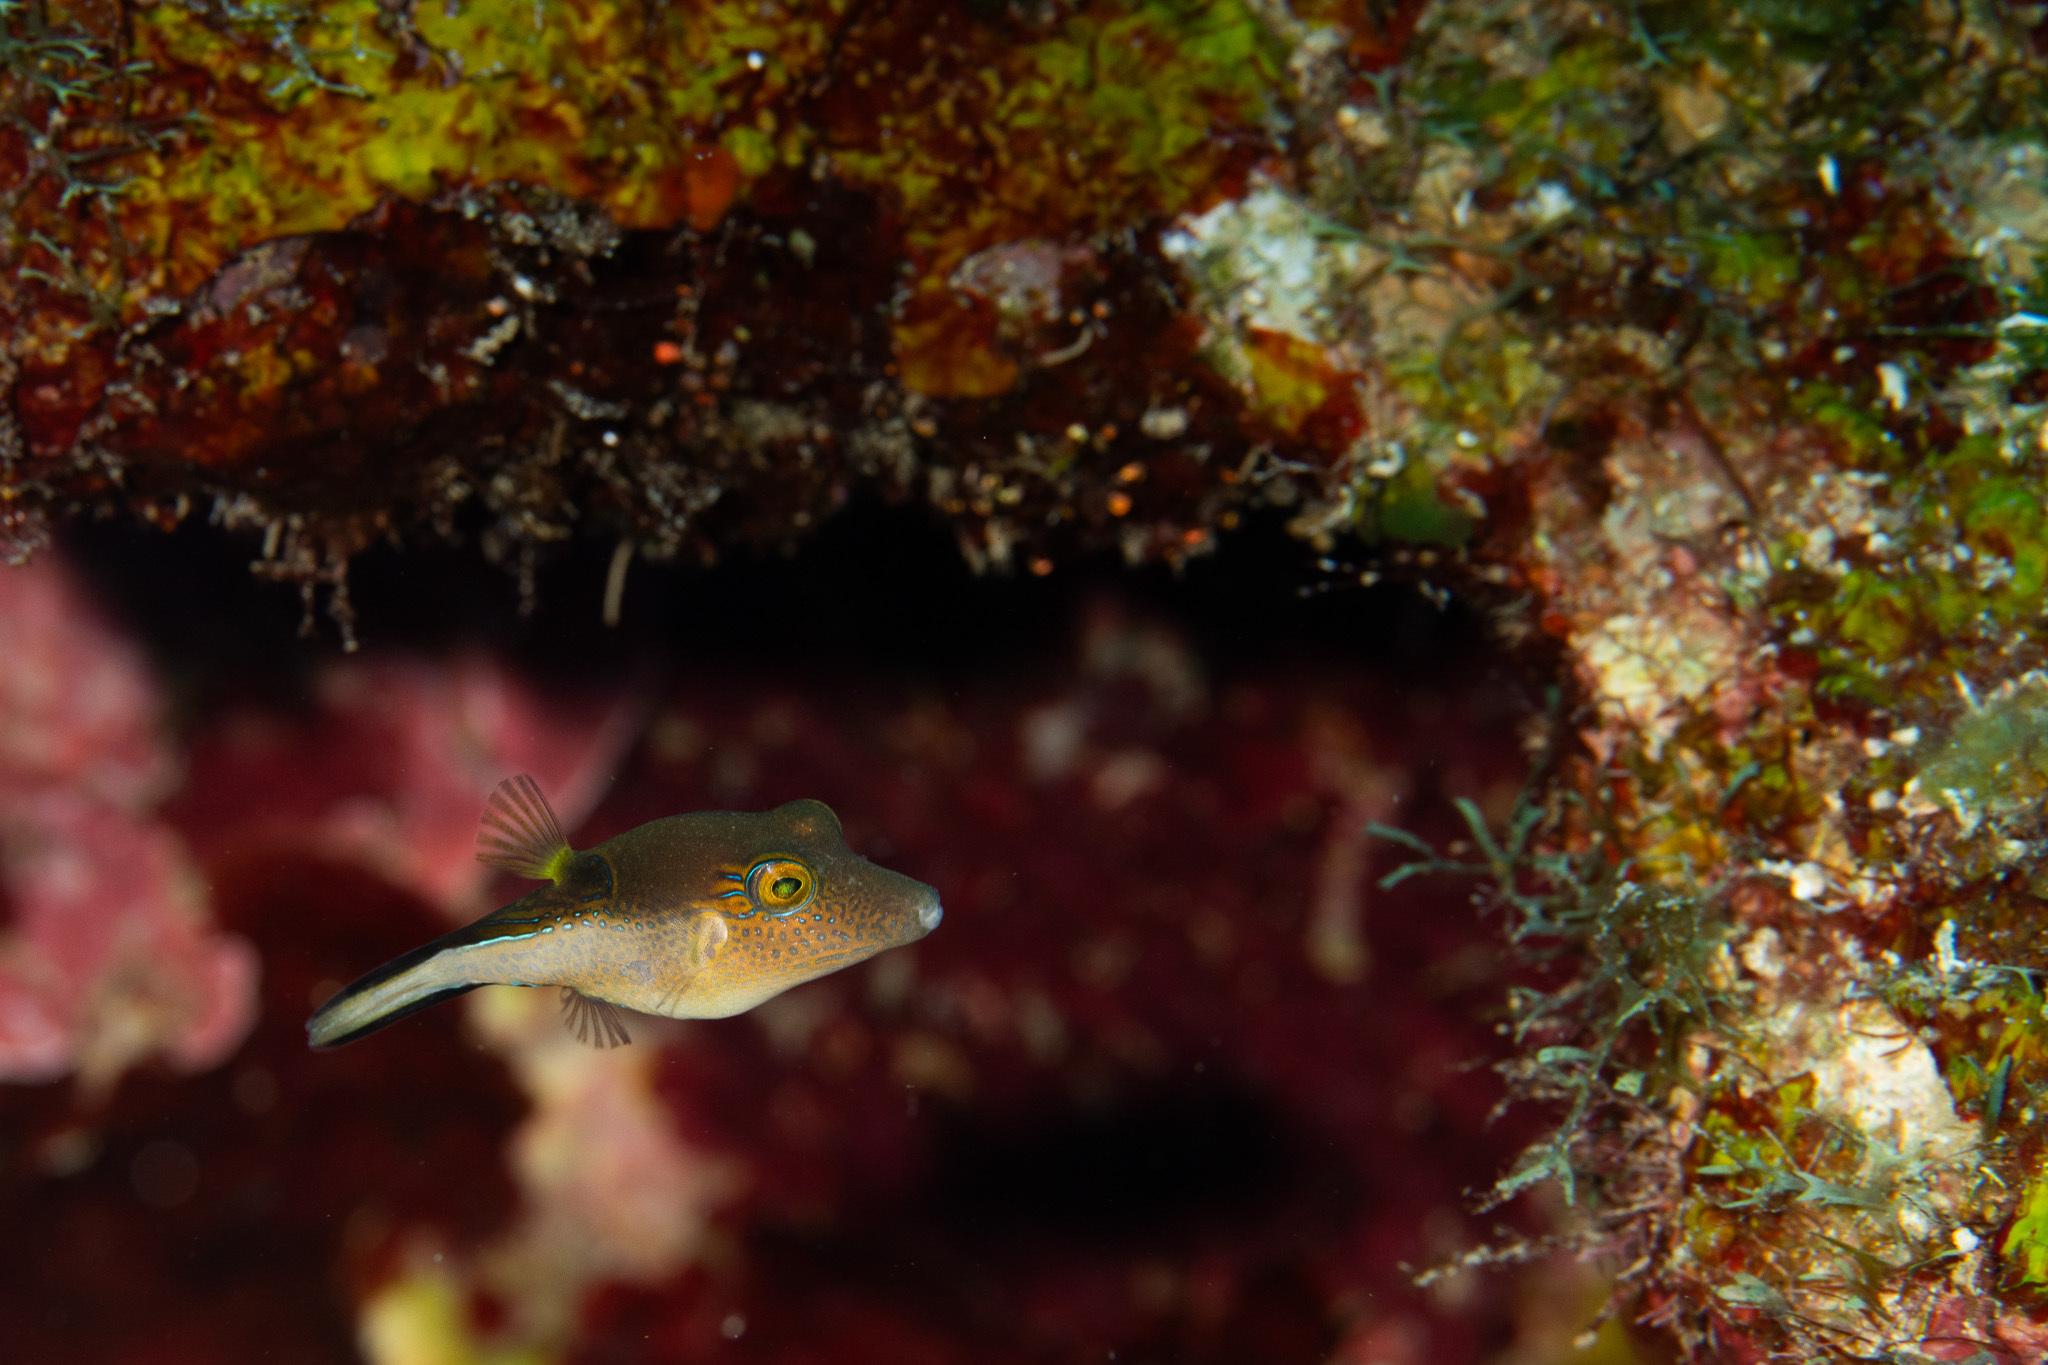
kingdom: Animalia
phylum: Chordata
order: Tetraodontiformes
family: Tetraodontidae
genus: Canthigaster
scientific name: Canthigaster rostrata
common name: Caribbean sharpnose-puffer
